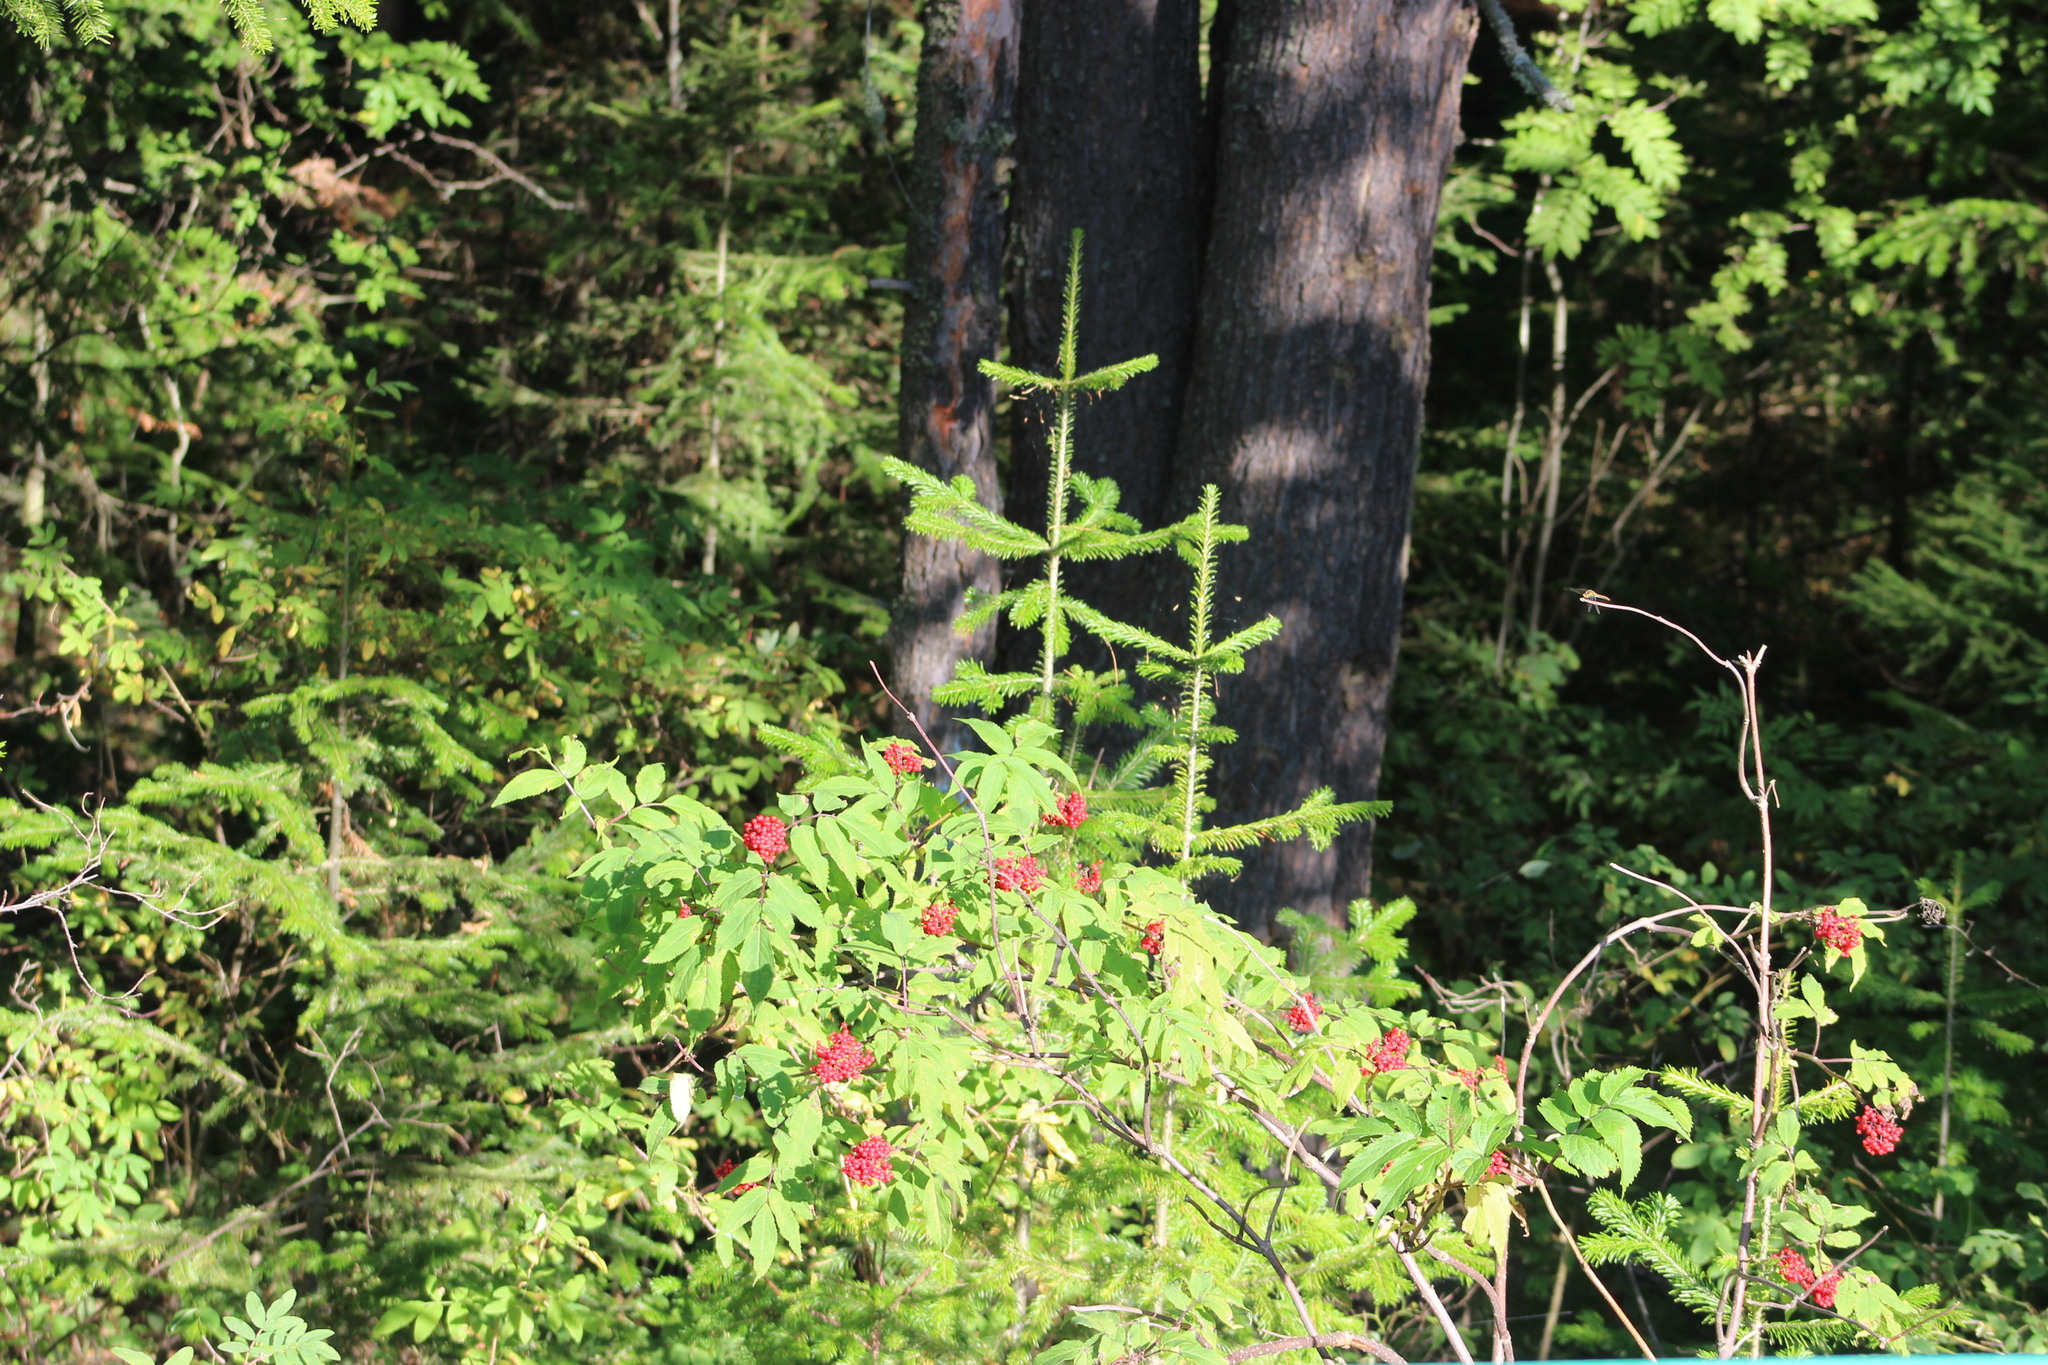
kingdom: Plantae
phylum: Tracheophyta
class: Magnoliopsida
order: Dipsacales
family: Viburnaceae
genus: Sambucus
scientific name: Sambucus sibirica
